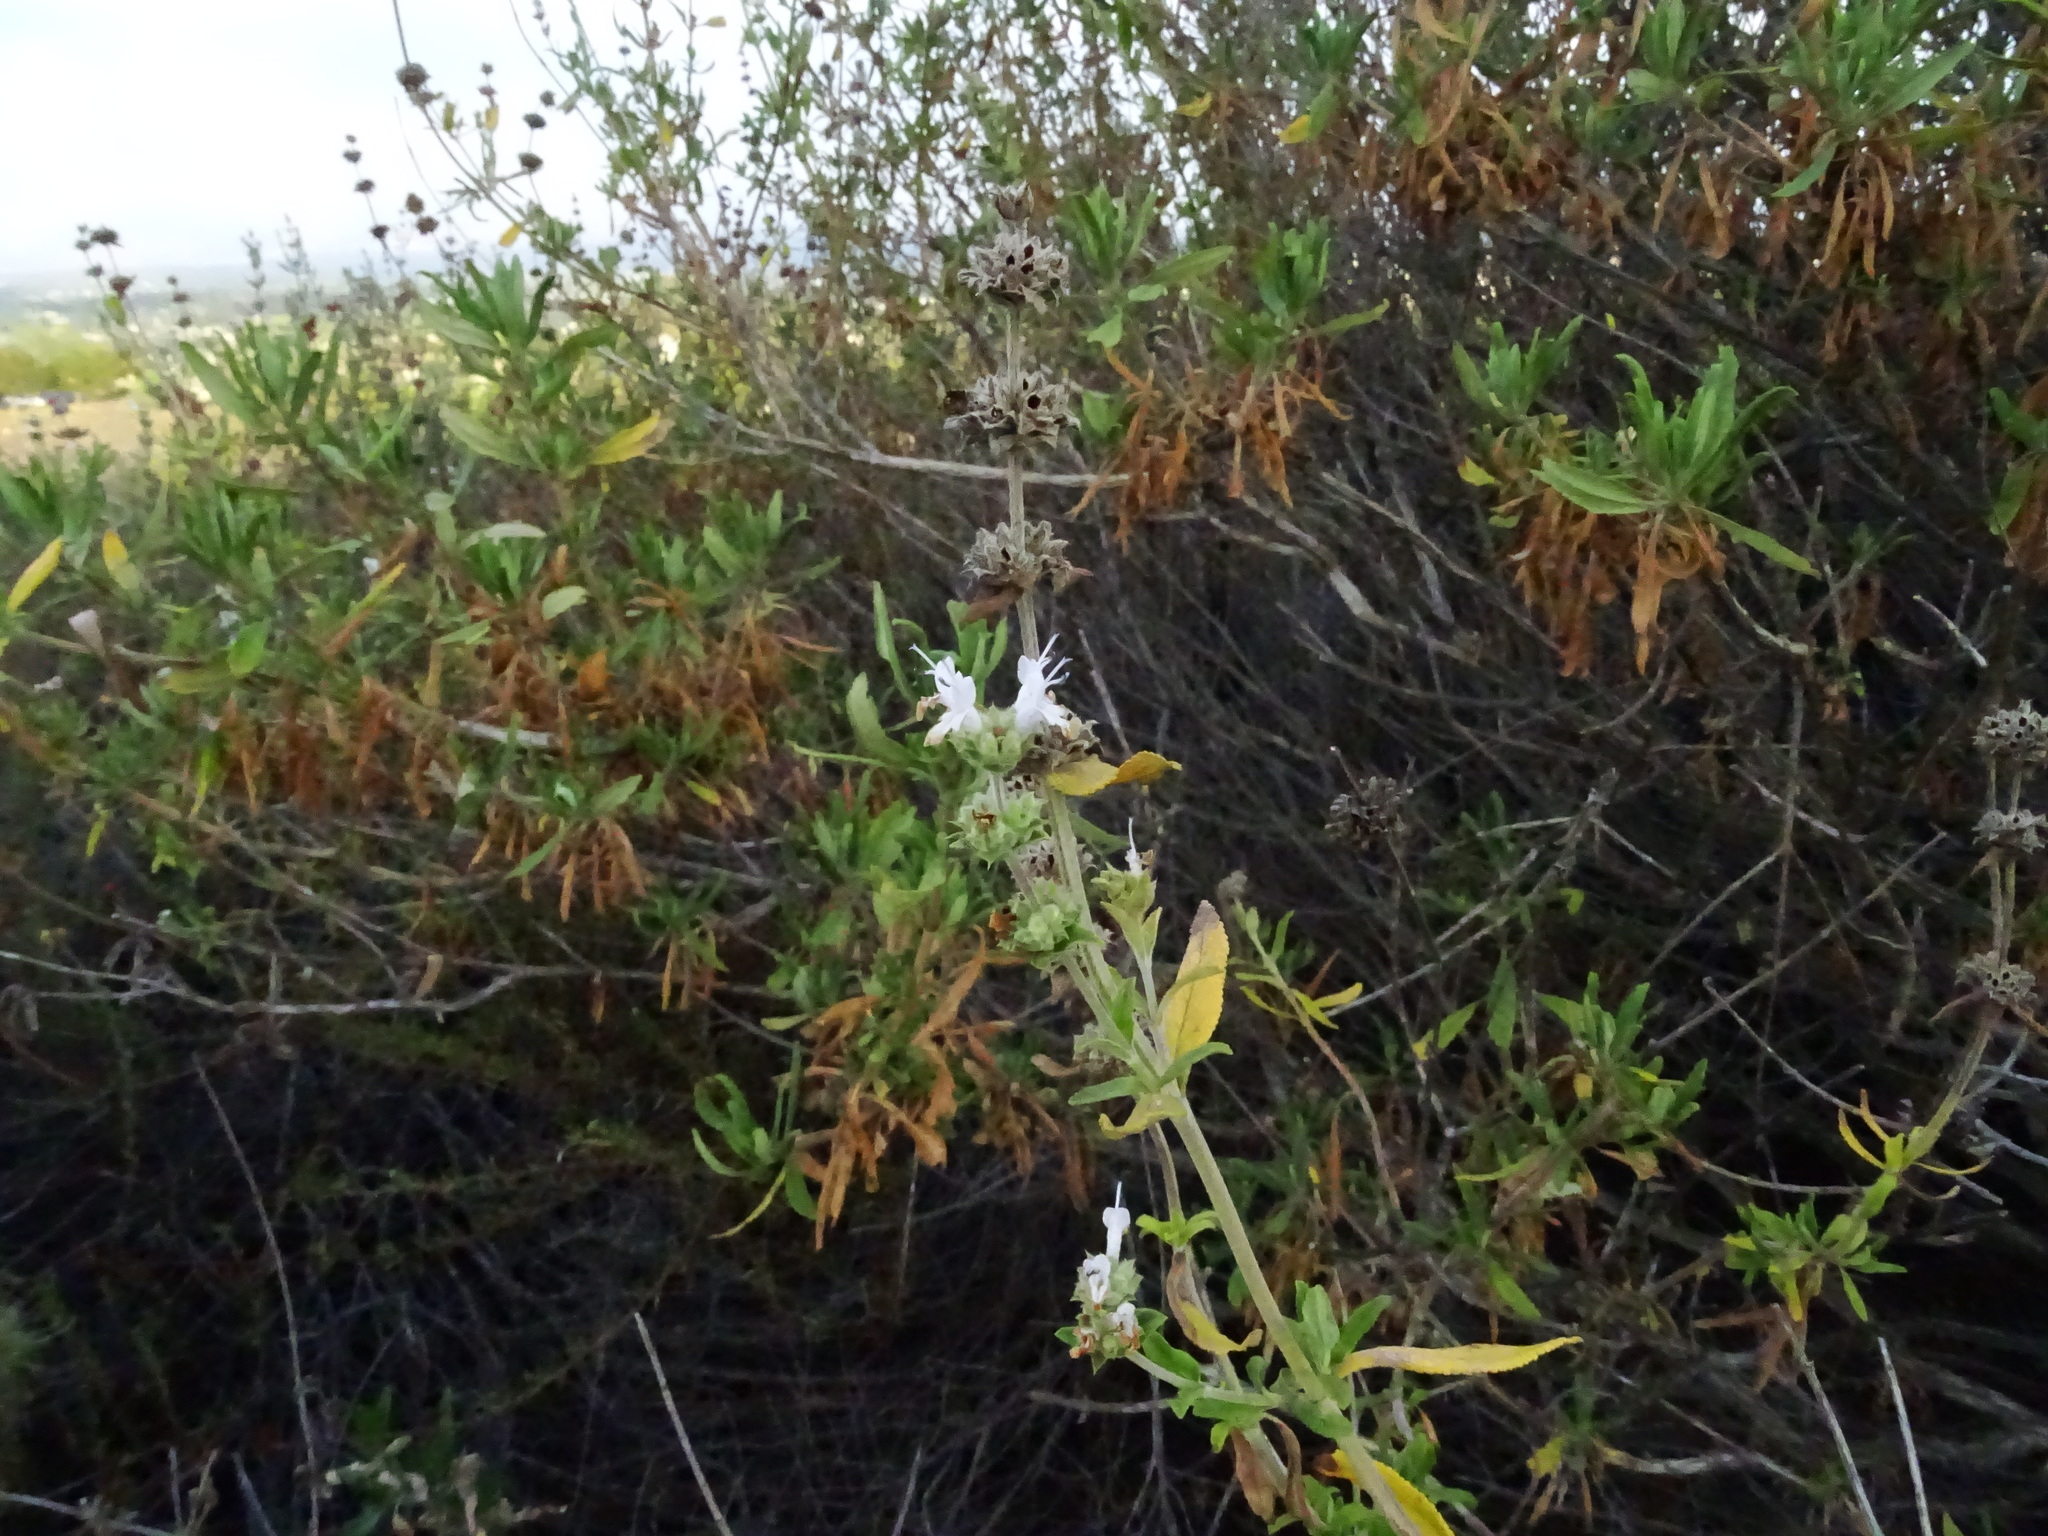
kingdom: Plantae
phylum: Tracheophyta
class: Magnoliopsida
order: Lamiales
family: Lamiaceae
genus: Salvia
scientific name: Salvia mellifera
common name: Black sage
